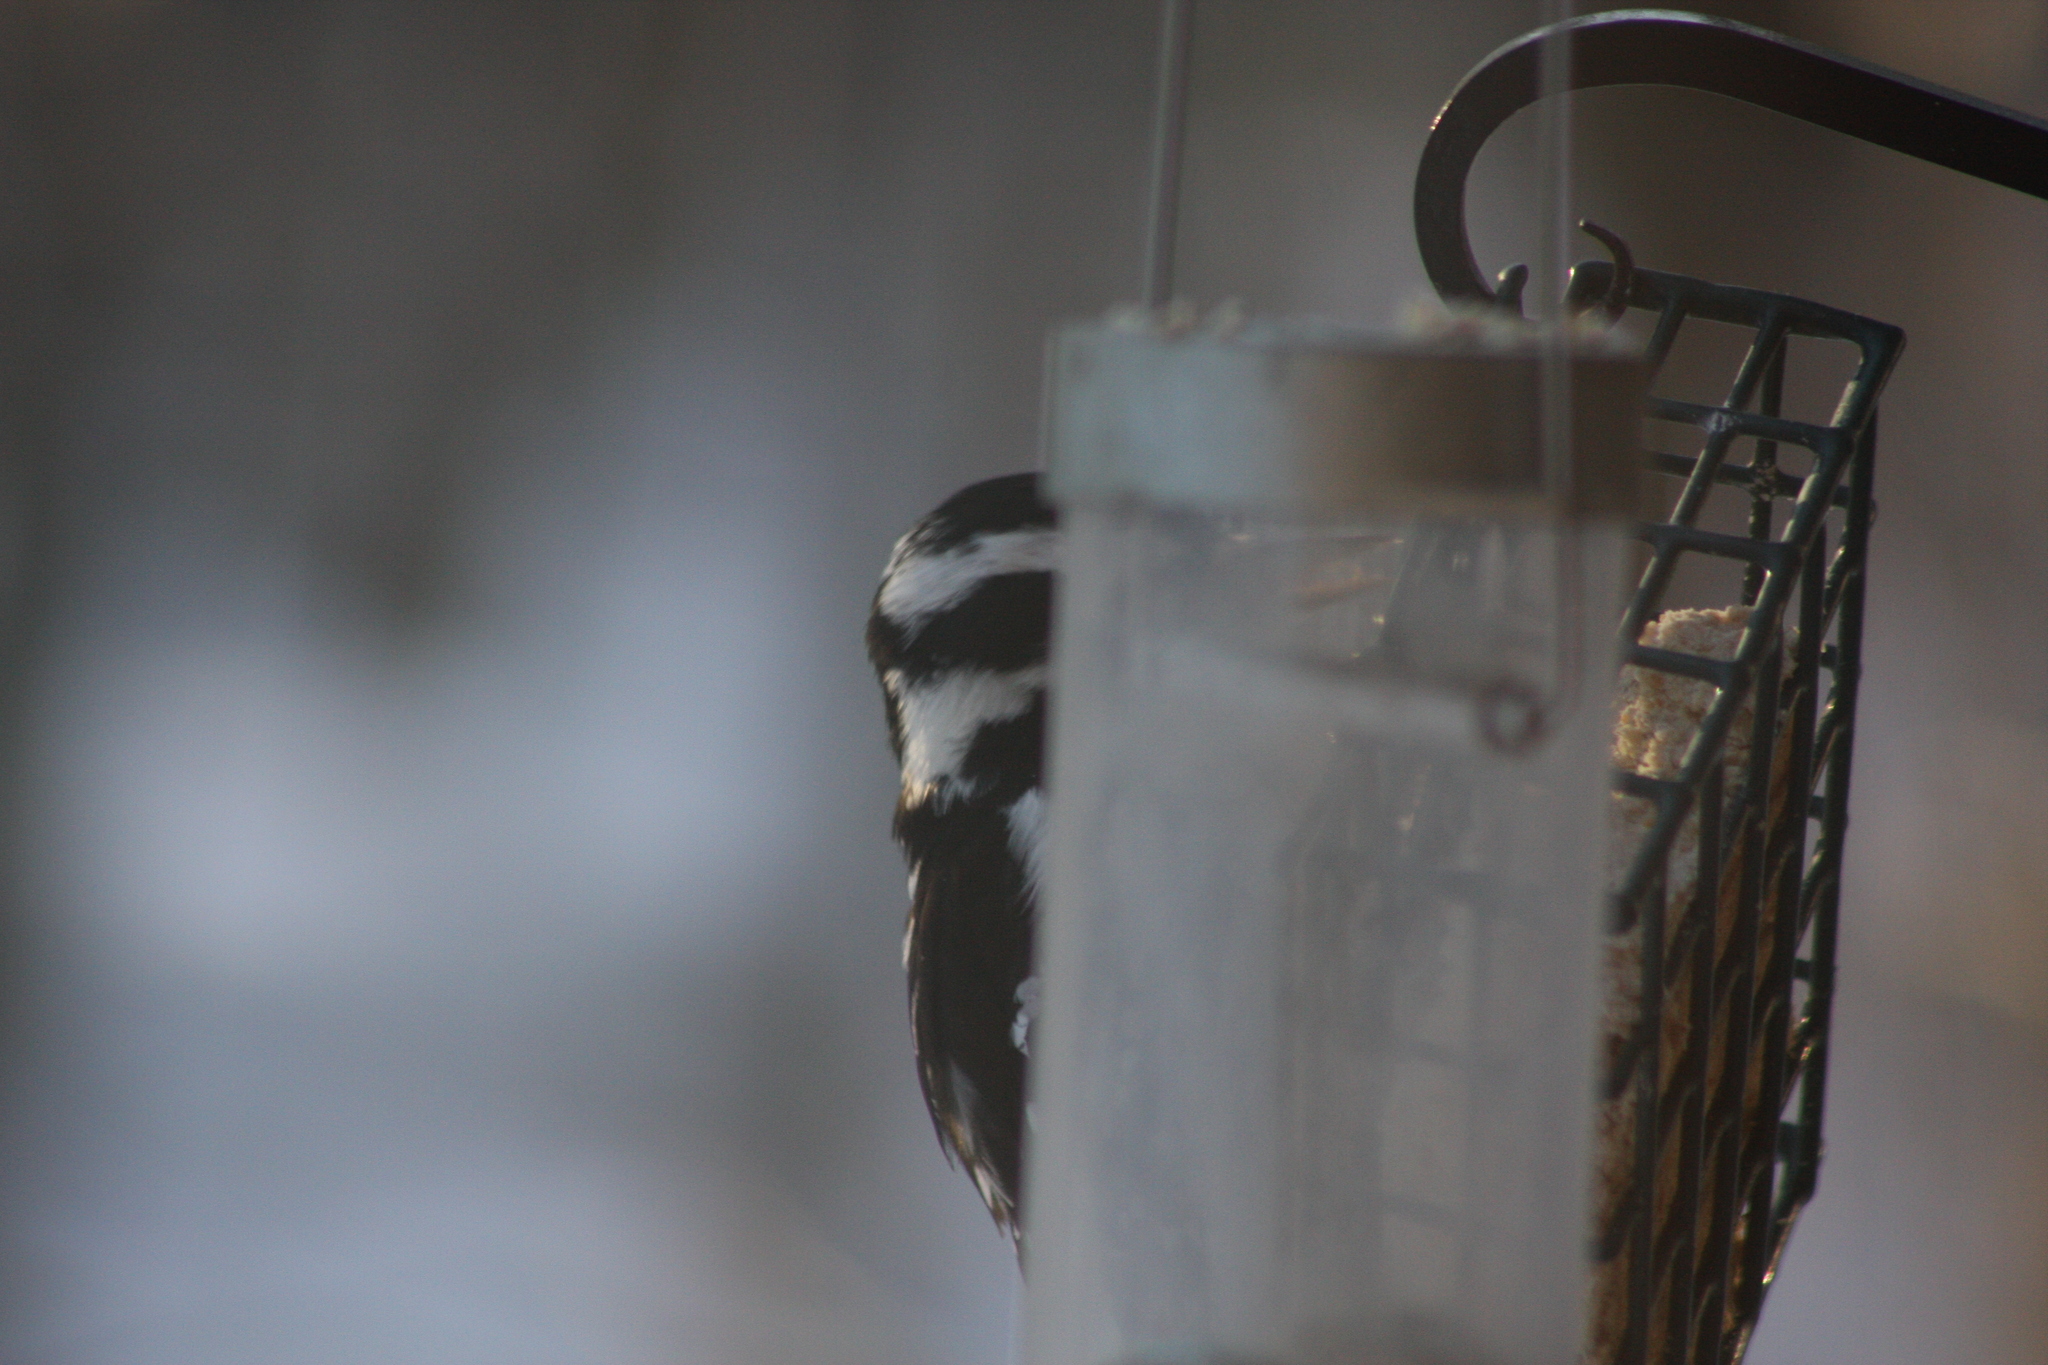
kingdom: Animalia
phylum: Chordata
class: Aves
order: Piciformes
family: Picidae
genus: Dryobates
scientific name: Dryobates pubescens
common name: Downy woodpecker
